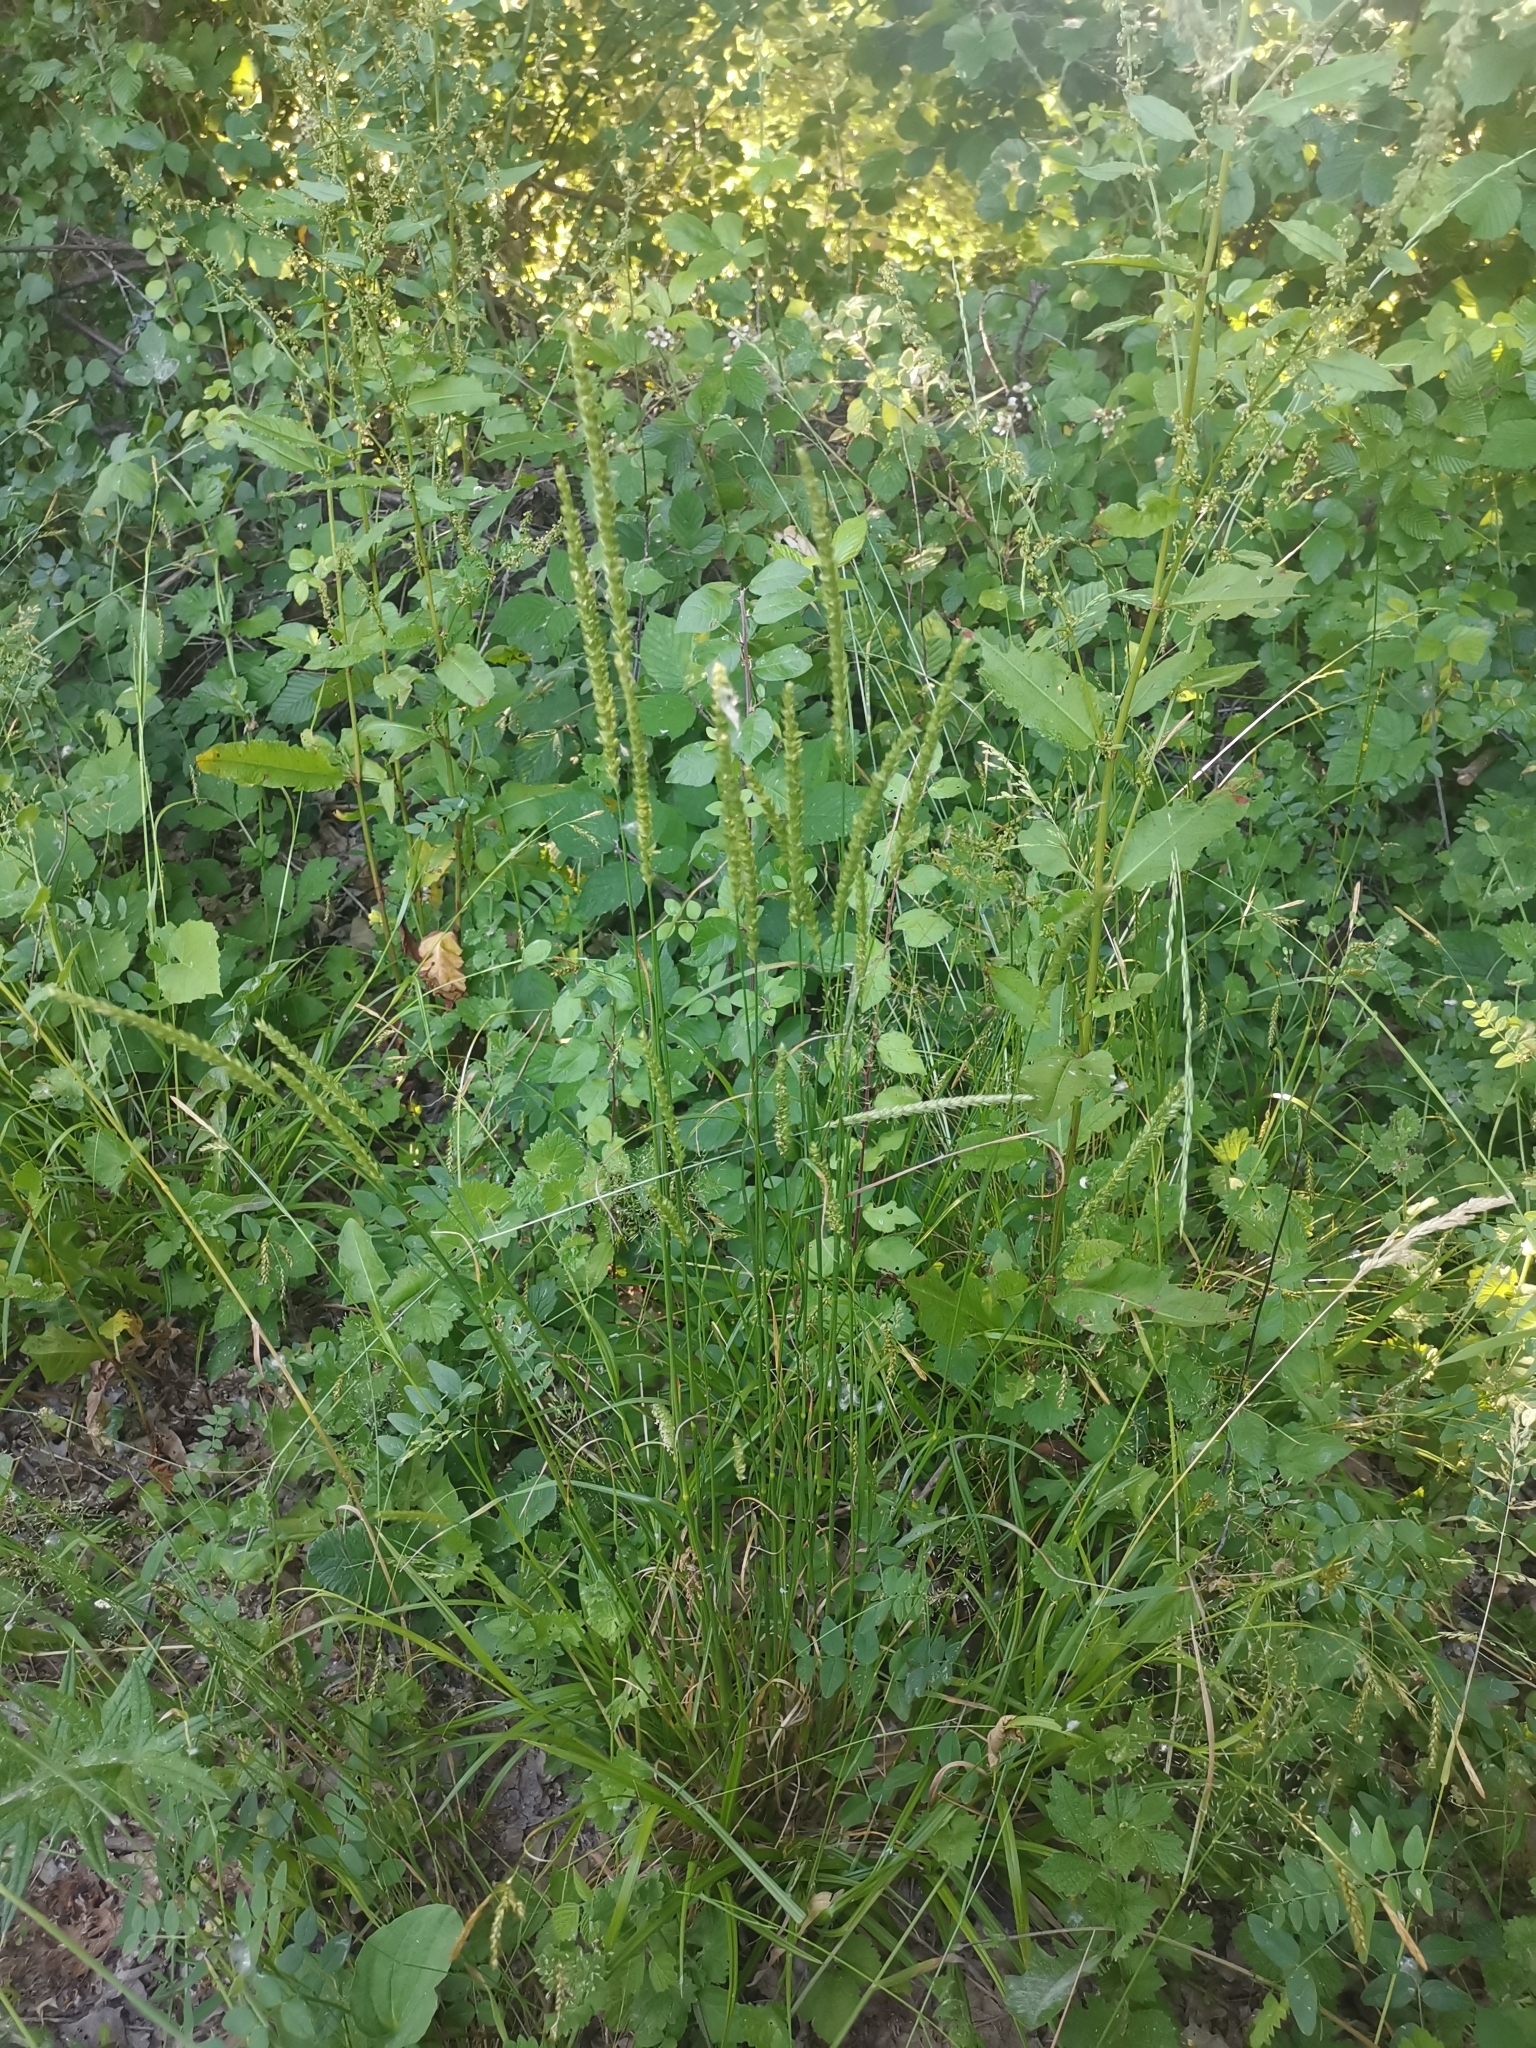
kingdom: Plantae
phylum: Tracheophyta
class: Liliopsida
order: Poales
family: Poaceae
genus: Cynosurus
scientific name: Cynosurus cristatus
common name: Crested dog's-tail
